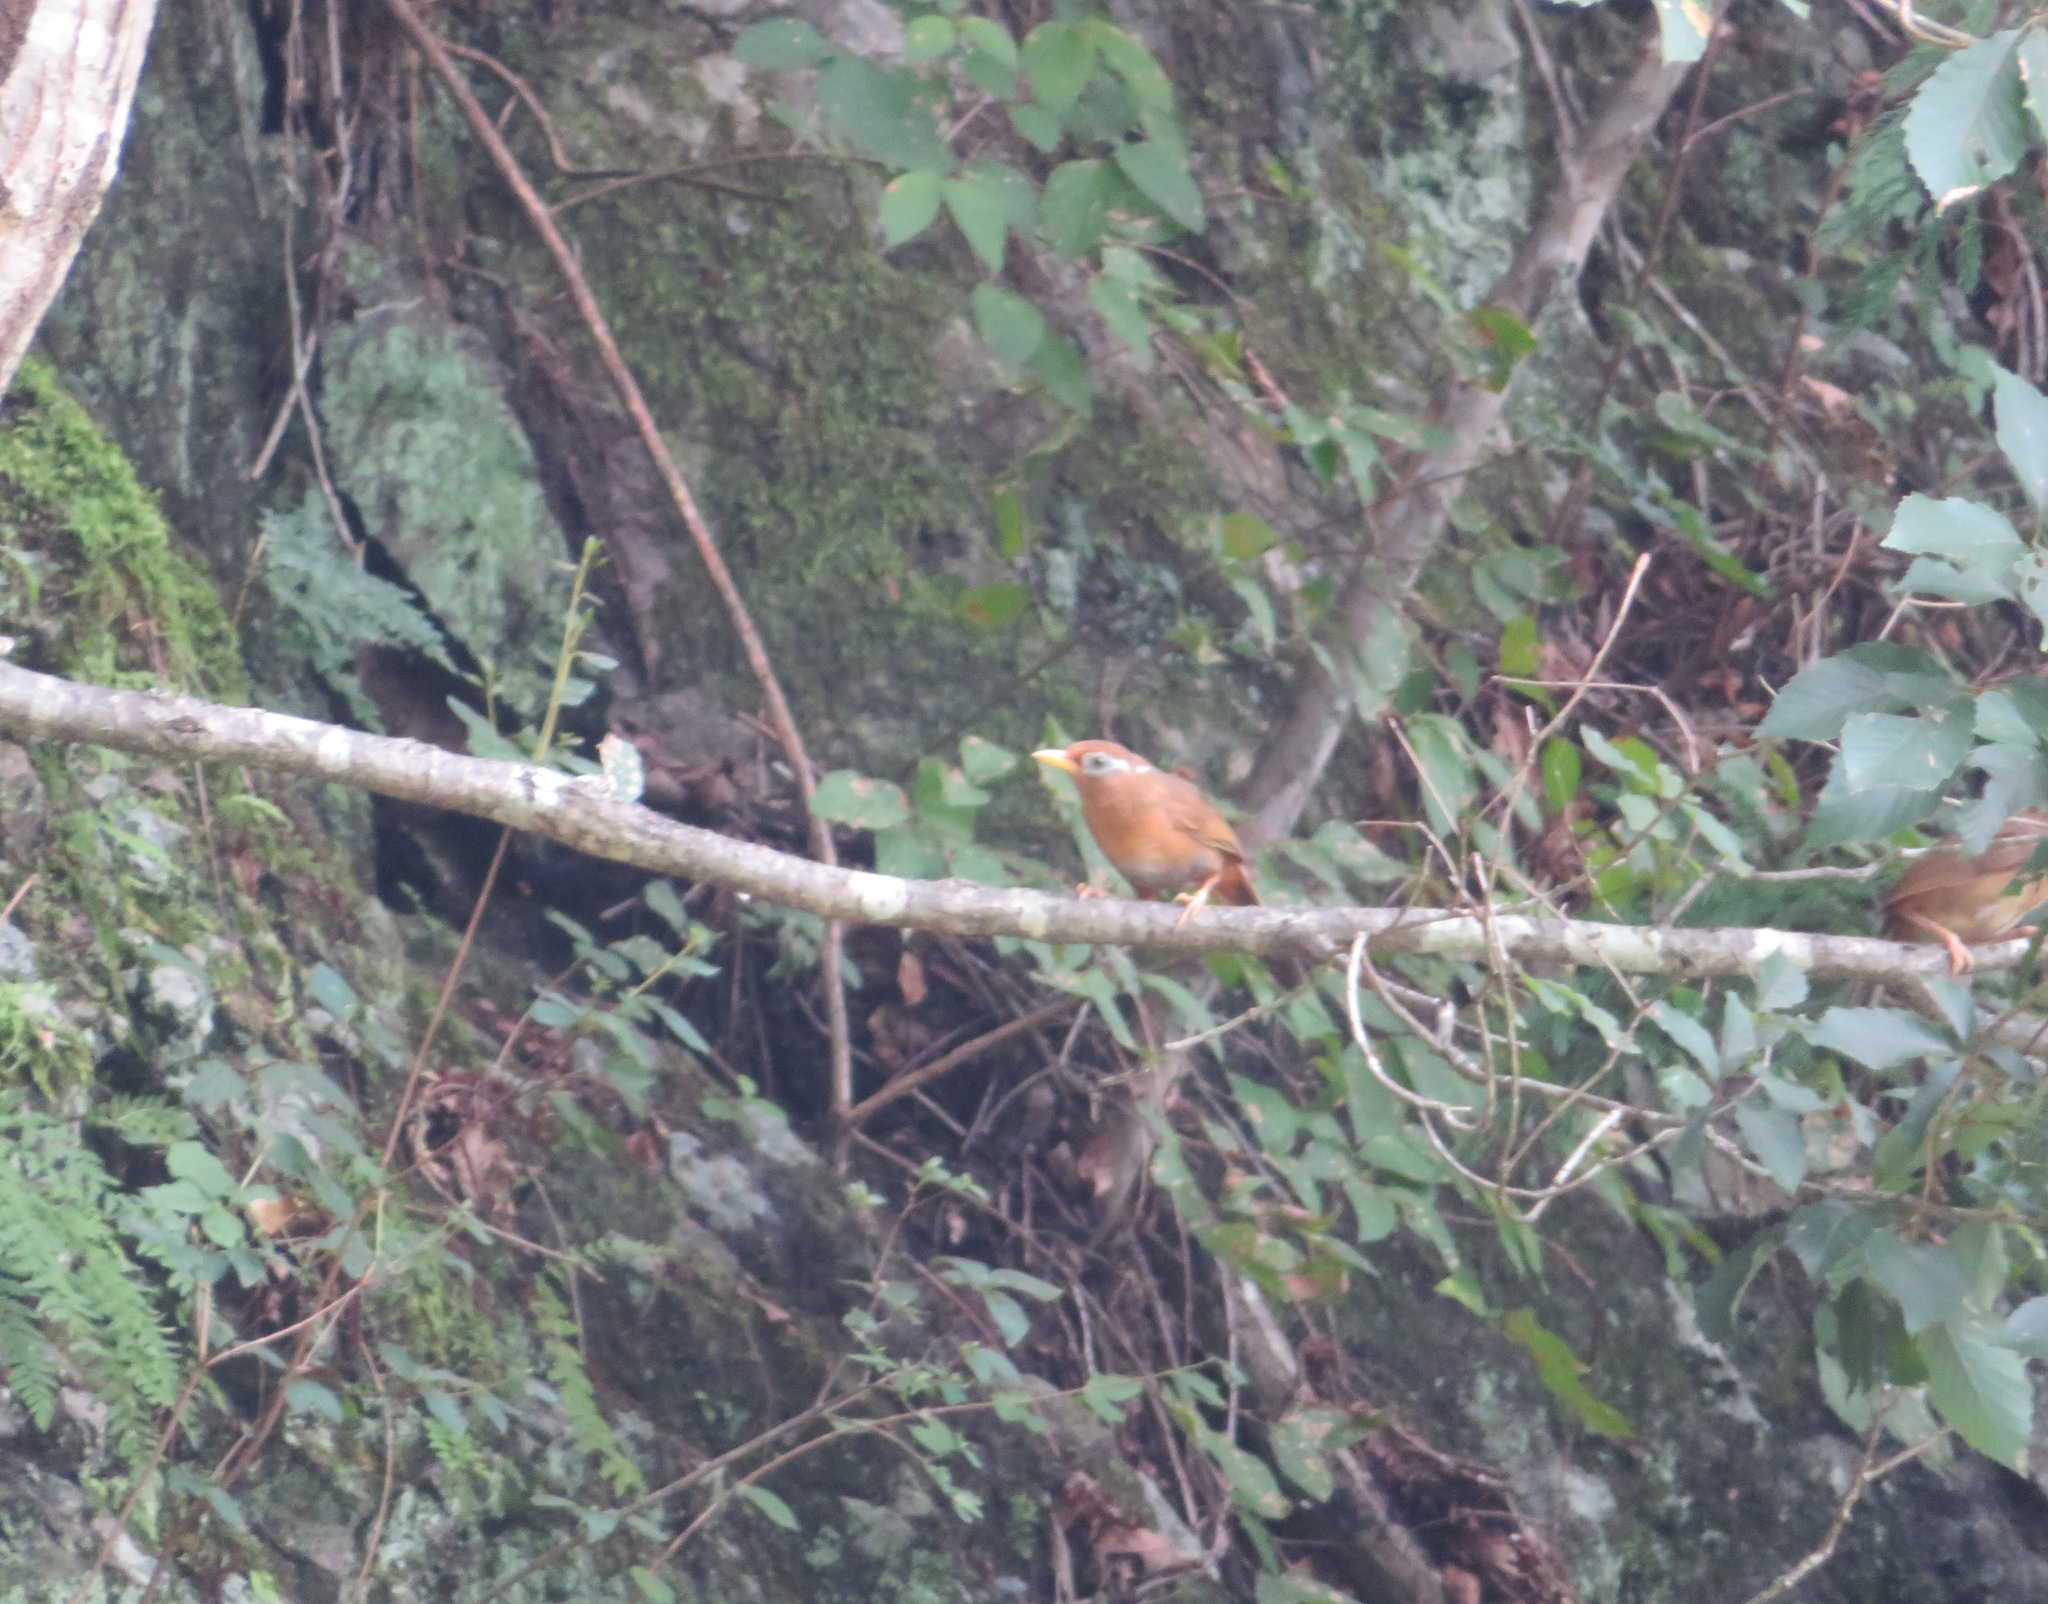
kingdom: Animalia
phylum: Chordata
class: Aves
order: Passeriformes
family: Leiothrichidae
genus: Garrulax
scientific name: Garrulax canorus
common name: Chinese hwamei
